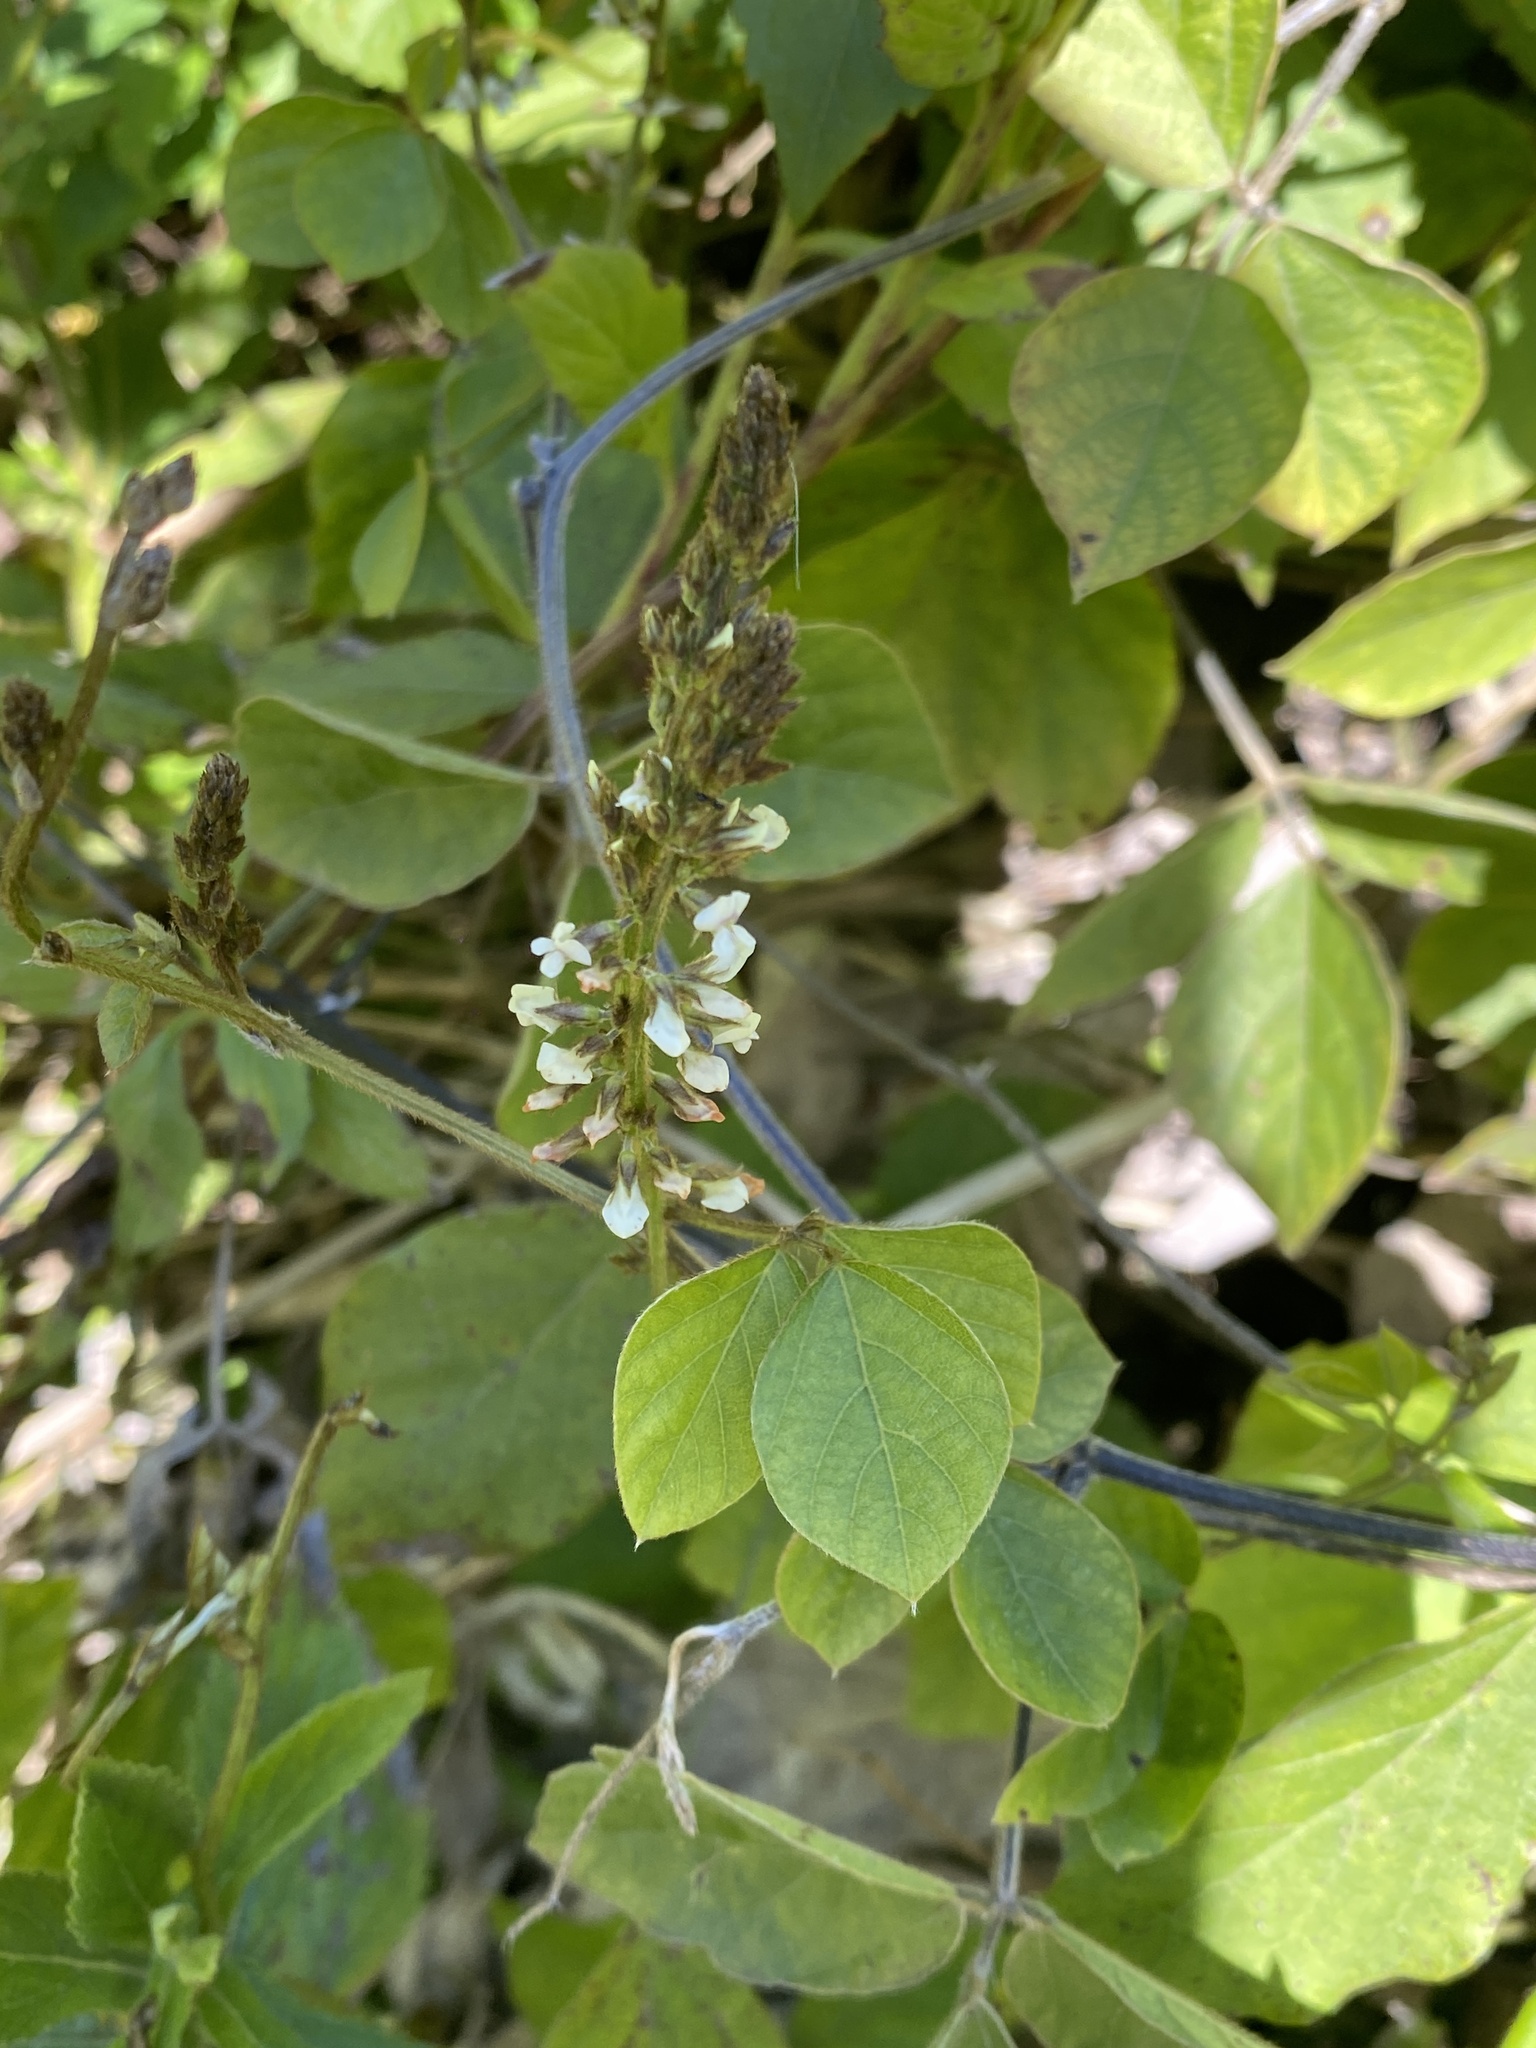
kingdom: Plantae
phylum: Tracheophyta
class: Magnoliopsida
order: Fabales
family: Fabaceae
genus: Neonotonia
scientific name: Neonotonia wightii
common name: Perennial soybean
